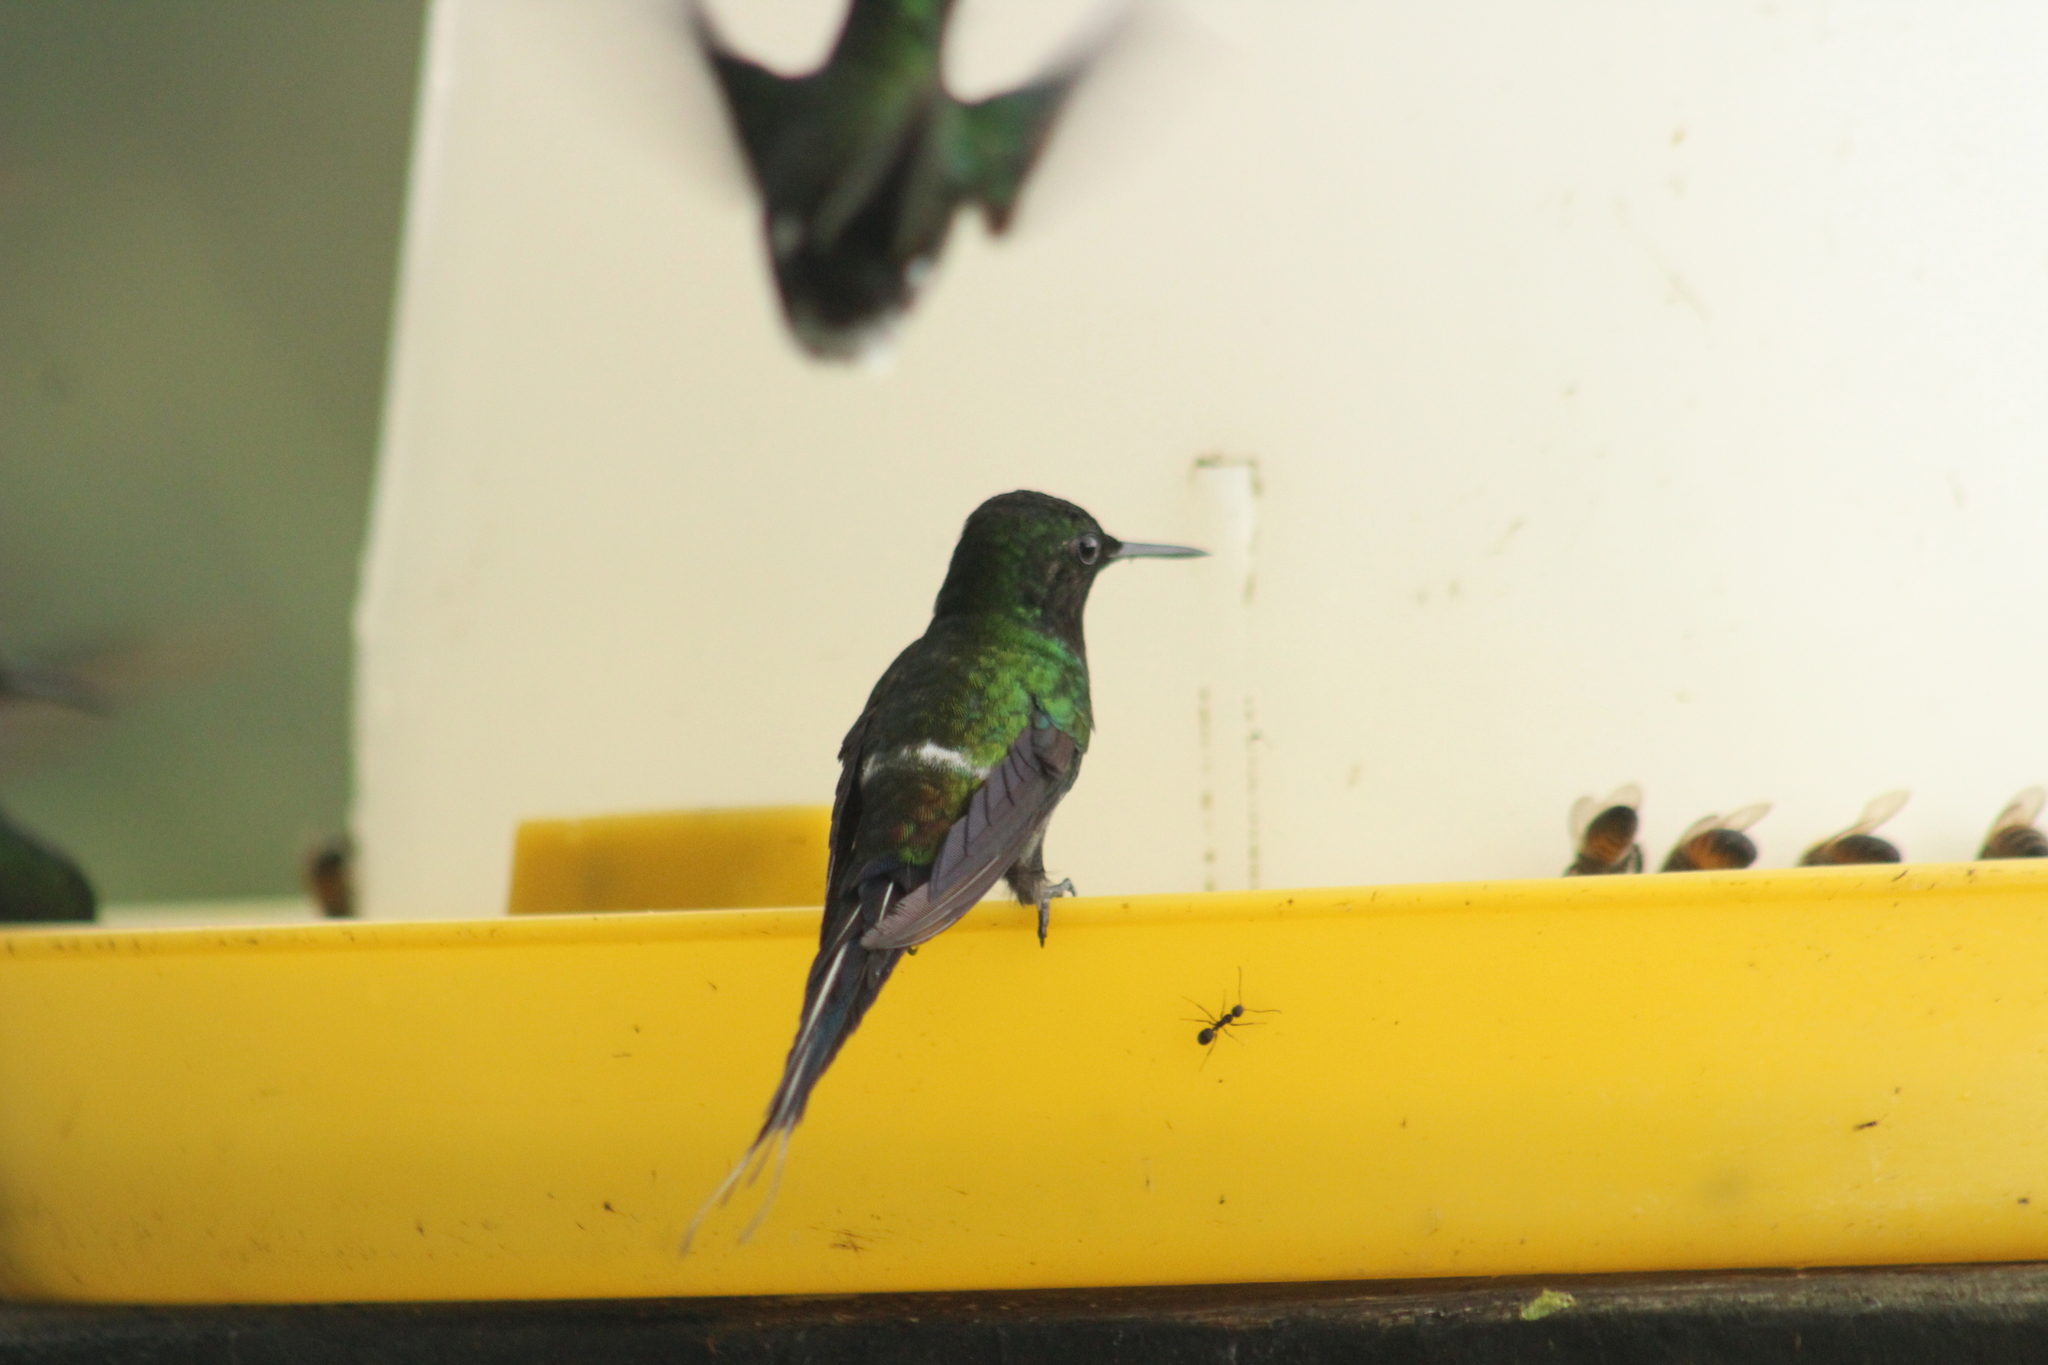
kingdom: Animalia
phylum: Chordata
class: Aves
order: Apodiformes
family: Trochilidae
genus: Discosura
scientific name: Discosura conversii
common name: Green thorntail
